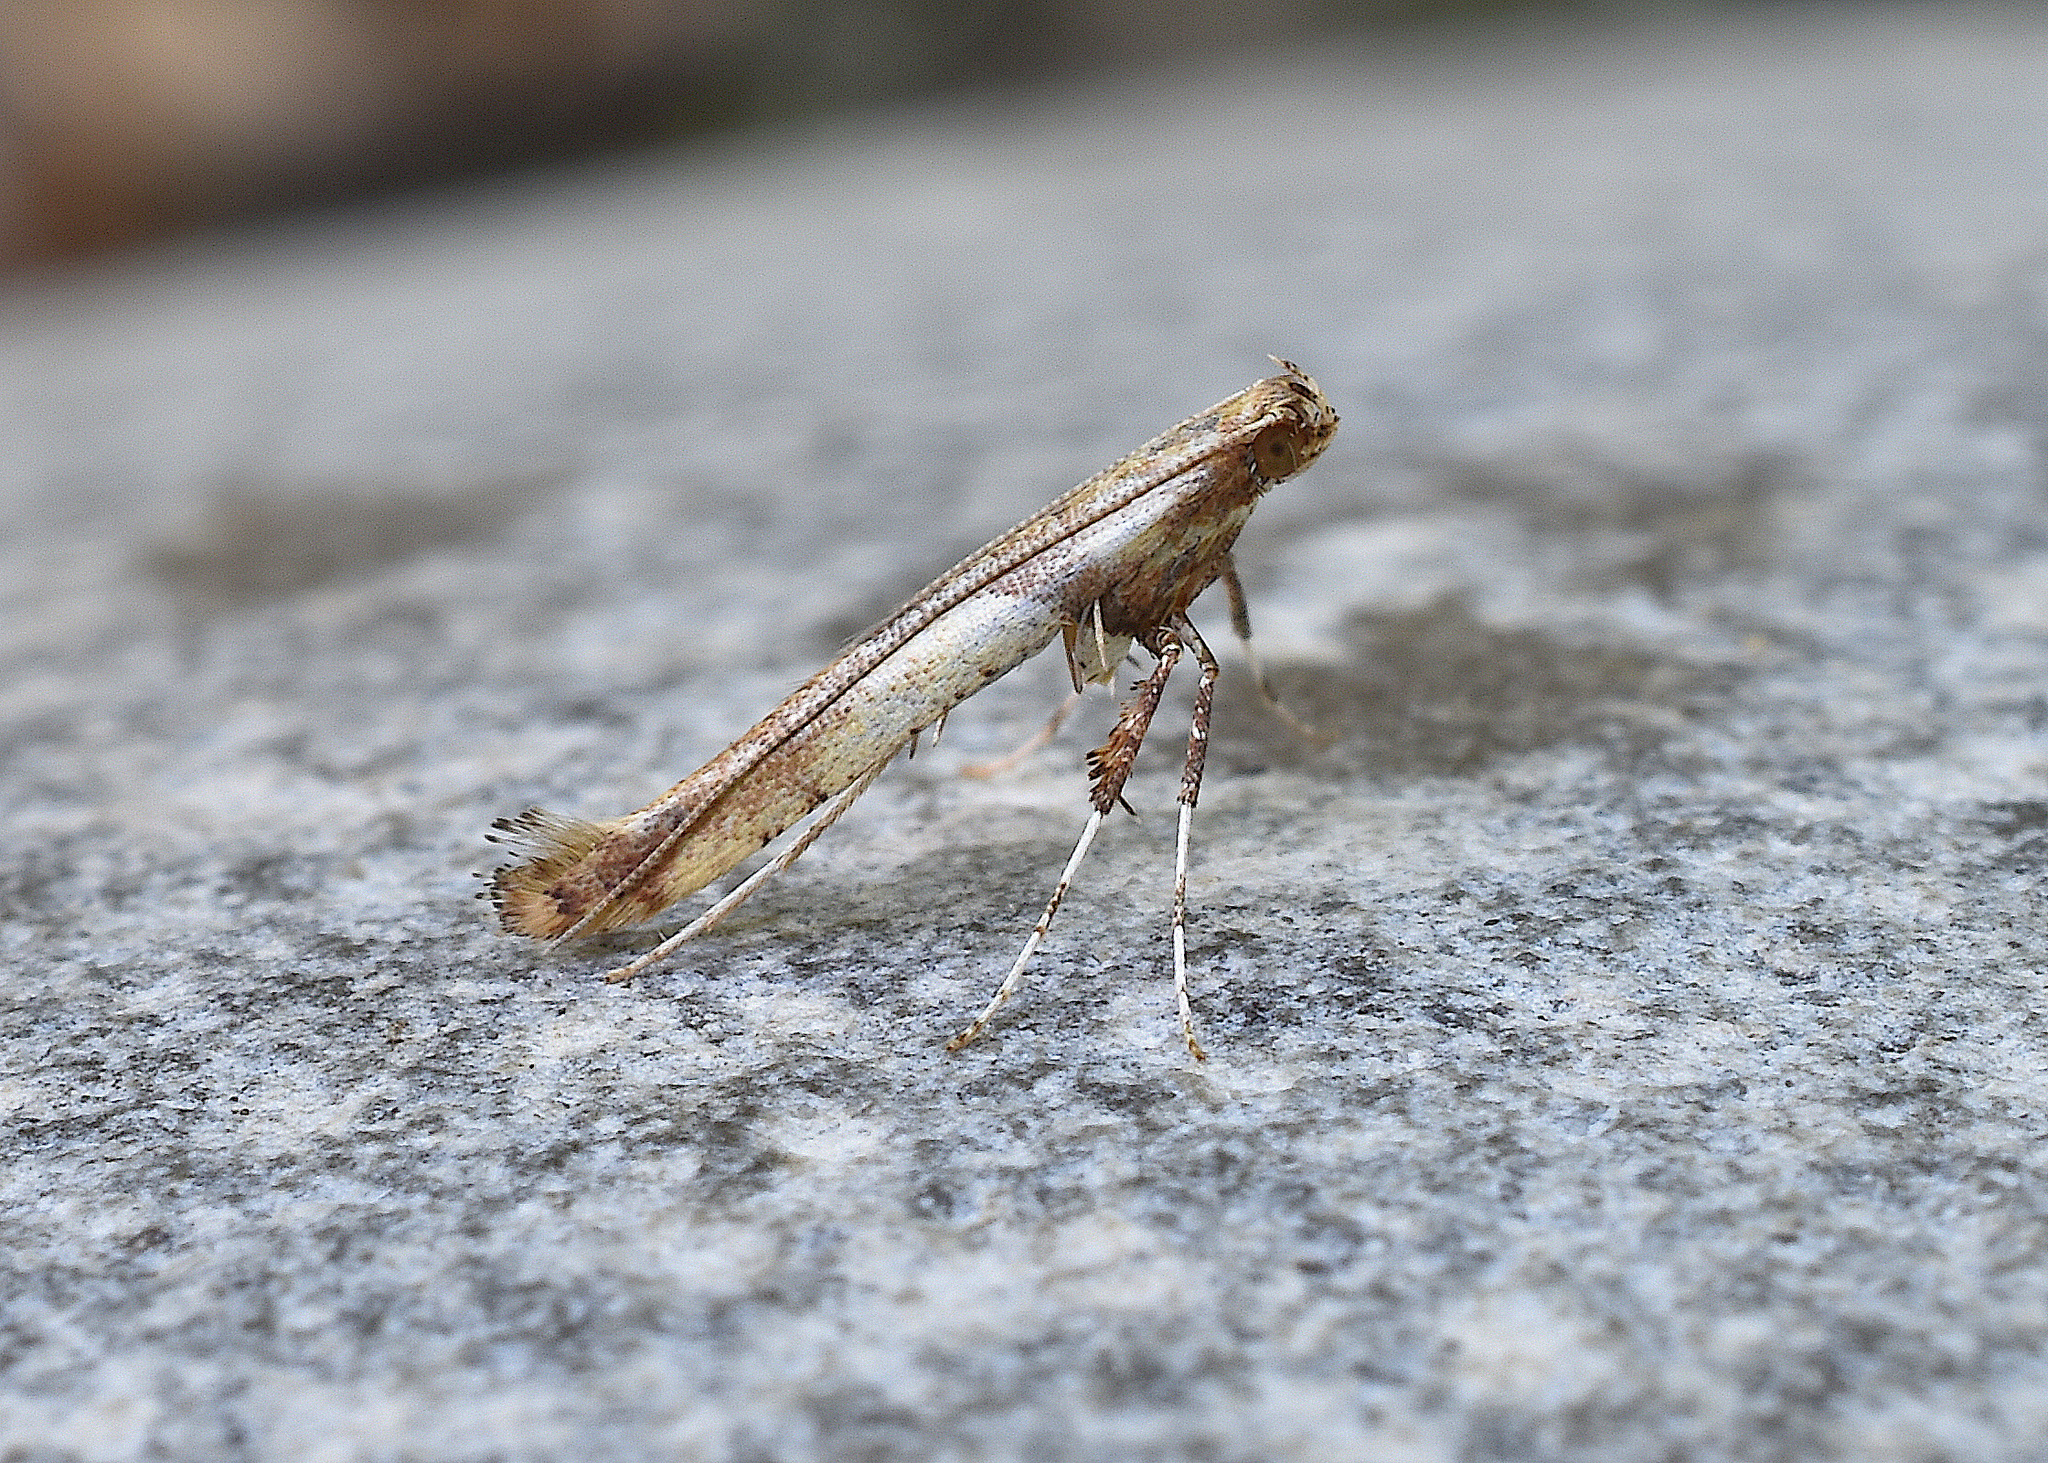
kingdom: Animalia
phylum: Arthropoda
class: Insecta
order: Lepidoptera
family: Gracillariidae
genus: Caloptilia
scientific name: Caloptilia negundella
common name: Leafminer
